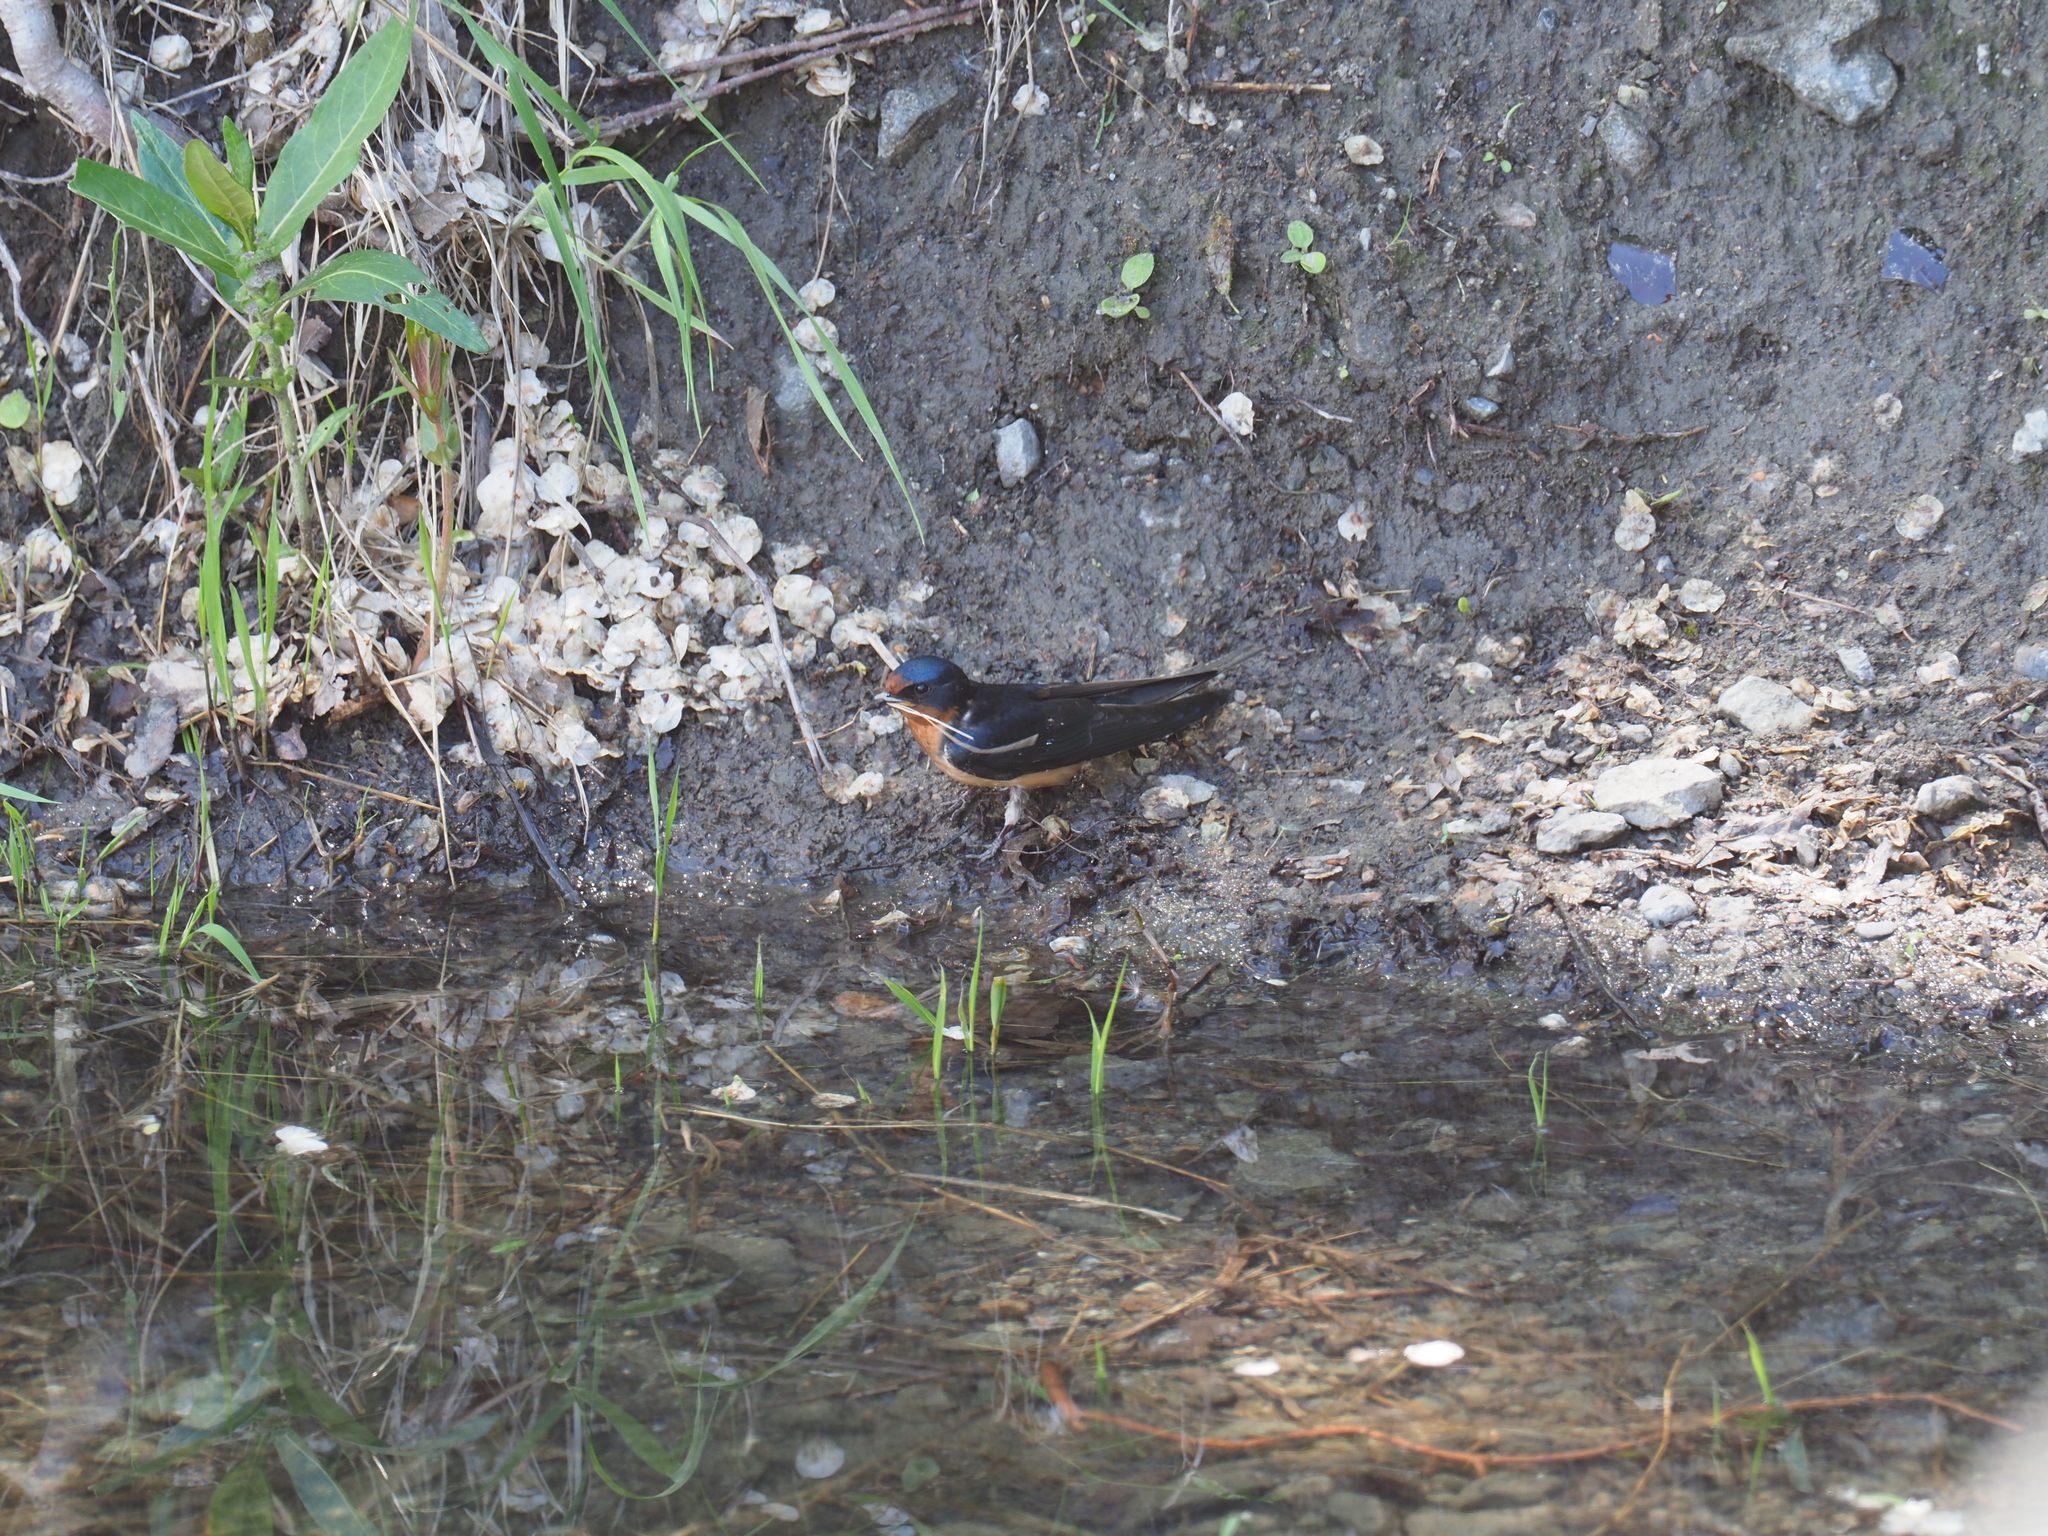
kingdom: Animalia
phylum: Chordata
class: Aves
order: Passeriformes
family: Hirundinidae
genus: Hirundo
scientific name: Hirundo rustica
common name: Barn swallow
